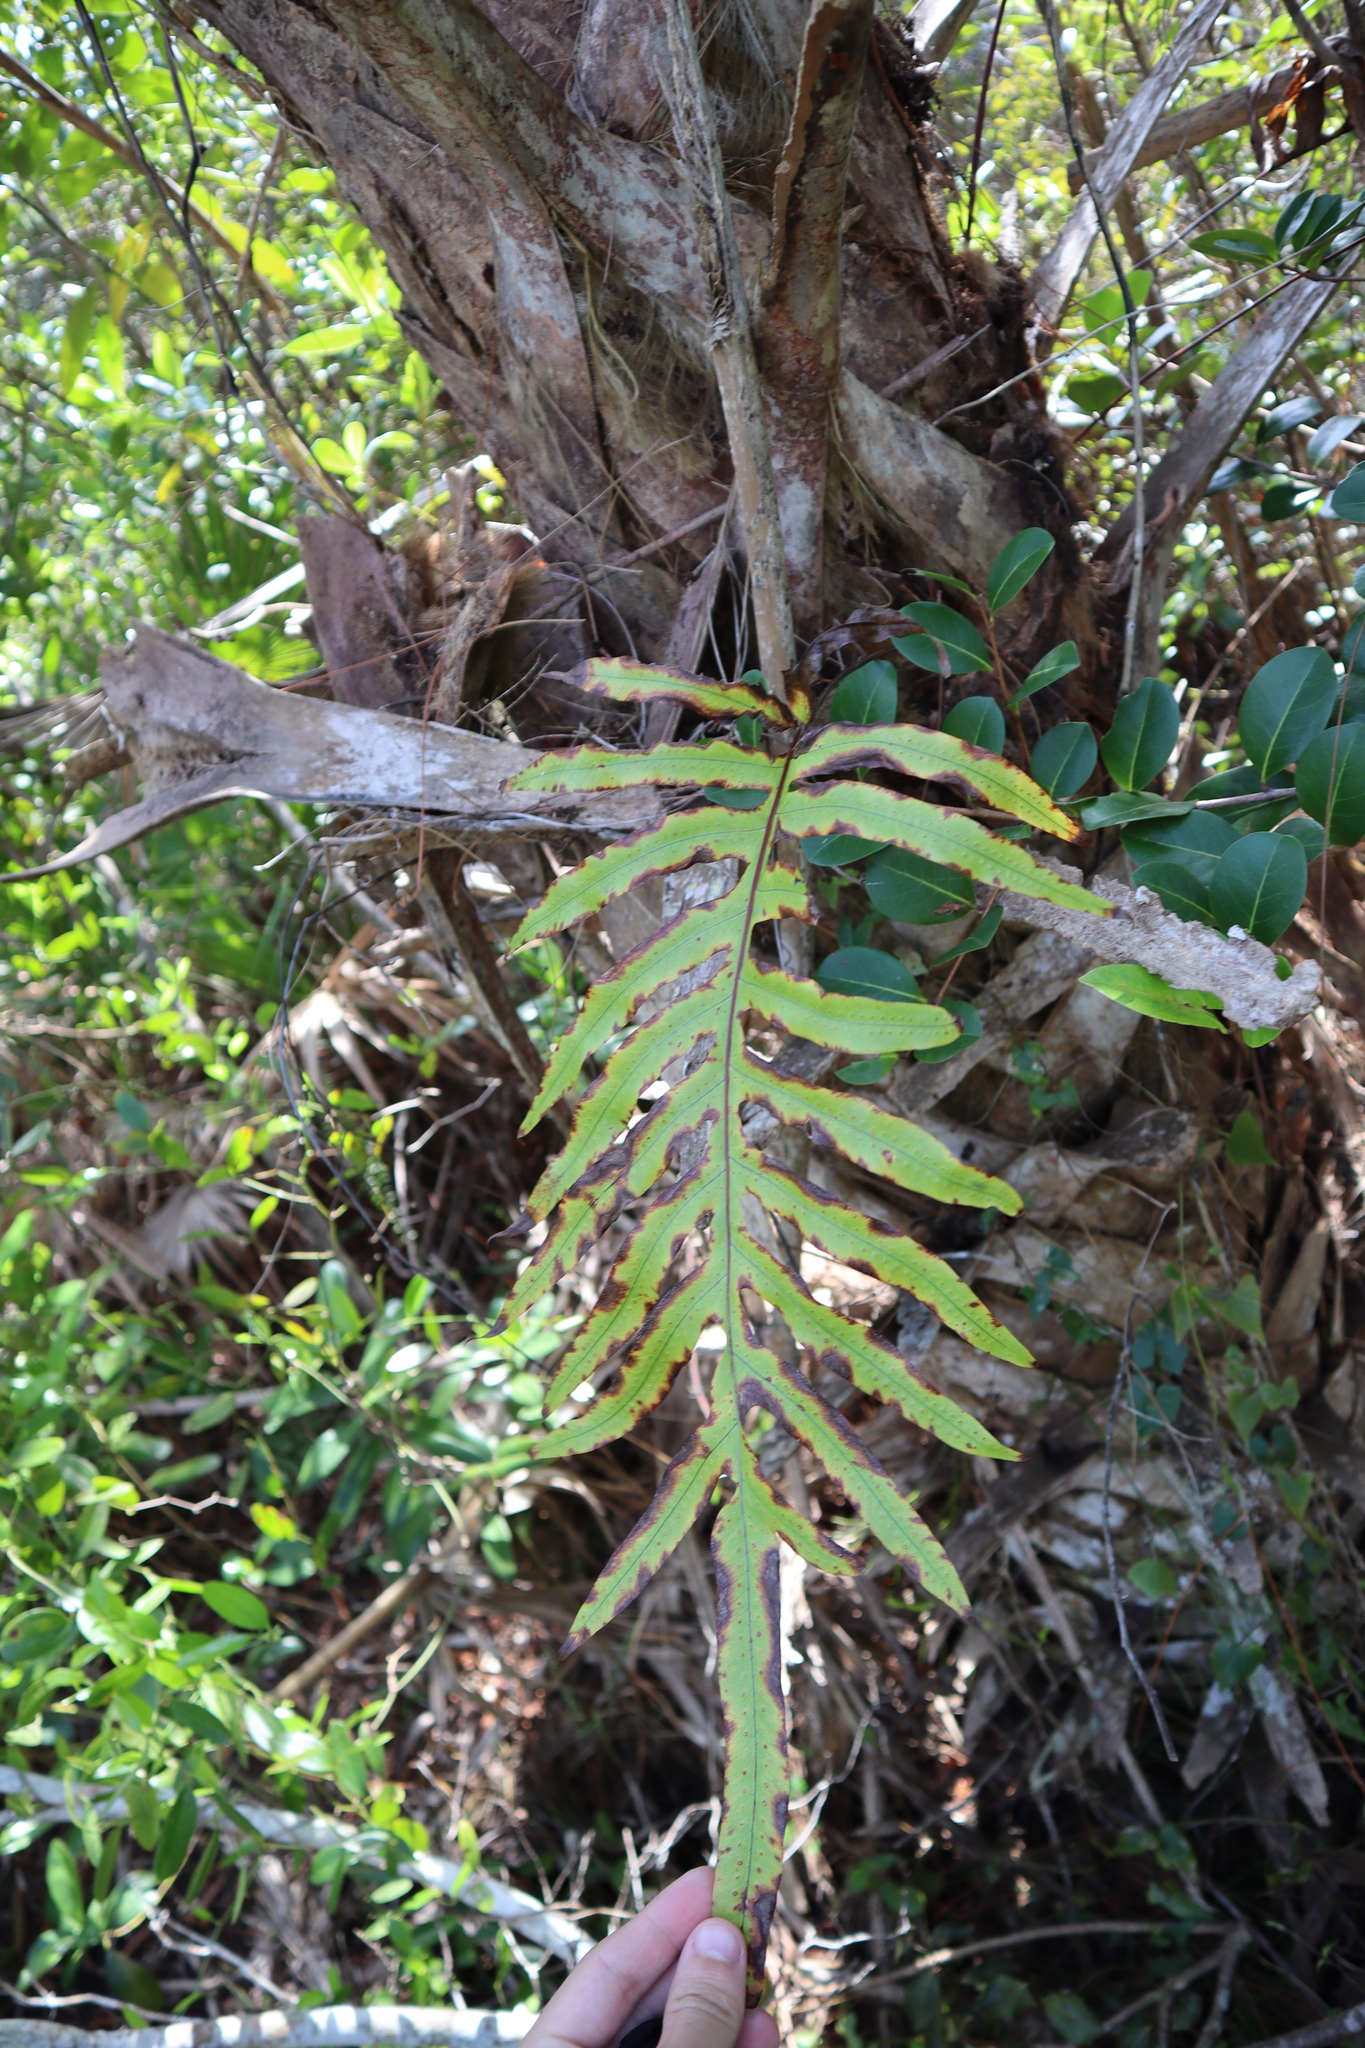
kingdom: Plantae
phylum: Tracheophyta
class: Polypodiopsida
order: Polypodiales
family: Polypodiaceae
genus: Phlebodium
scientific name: Phlebodium aureum
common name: Gold-foot fern
